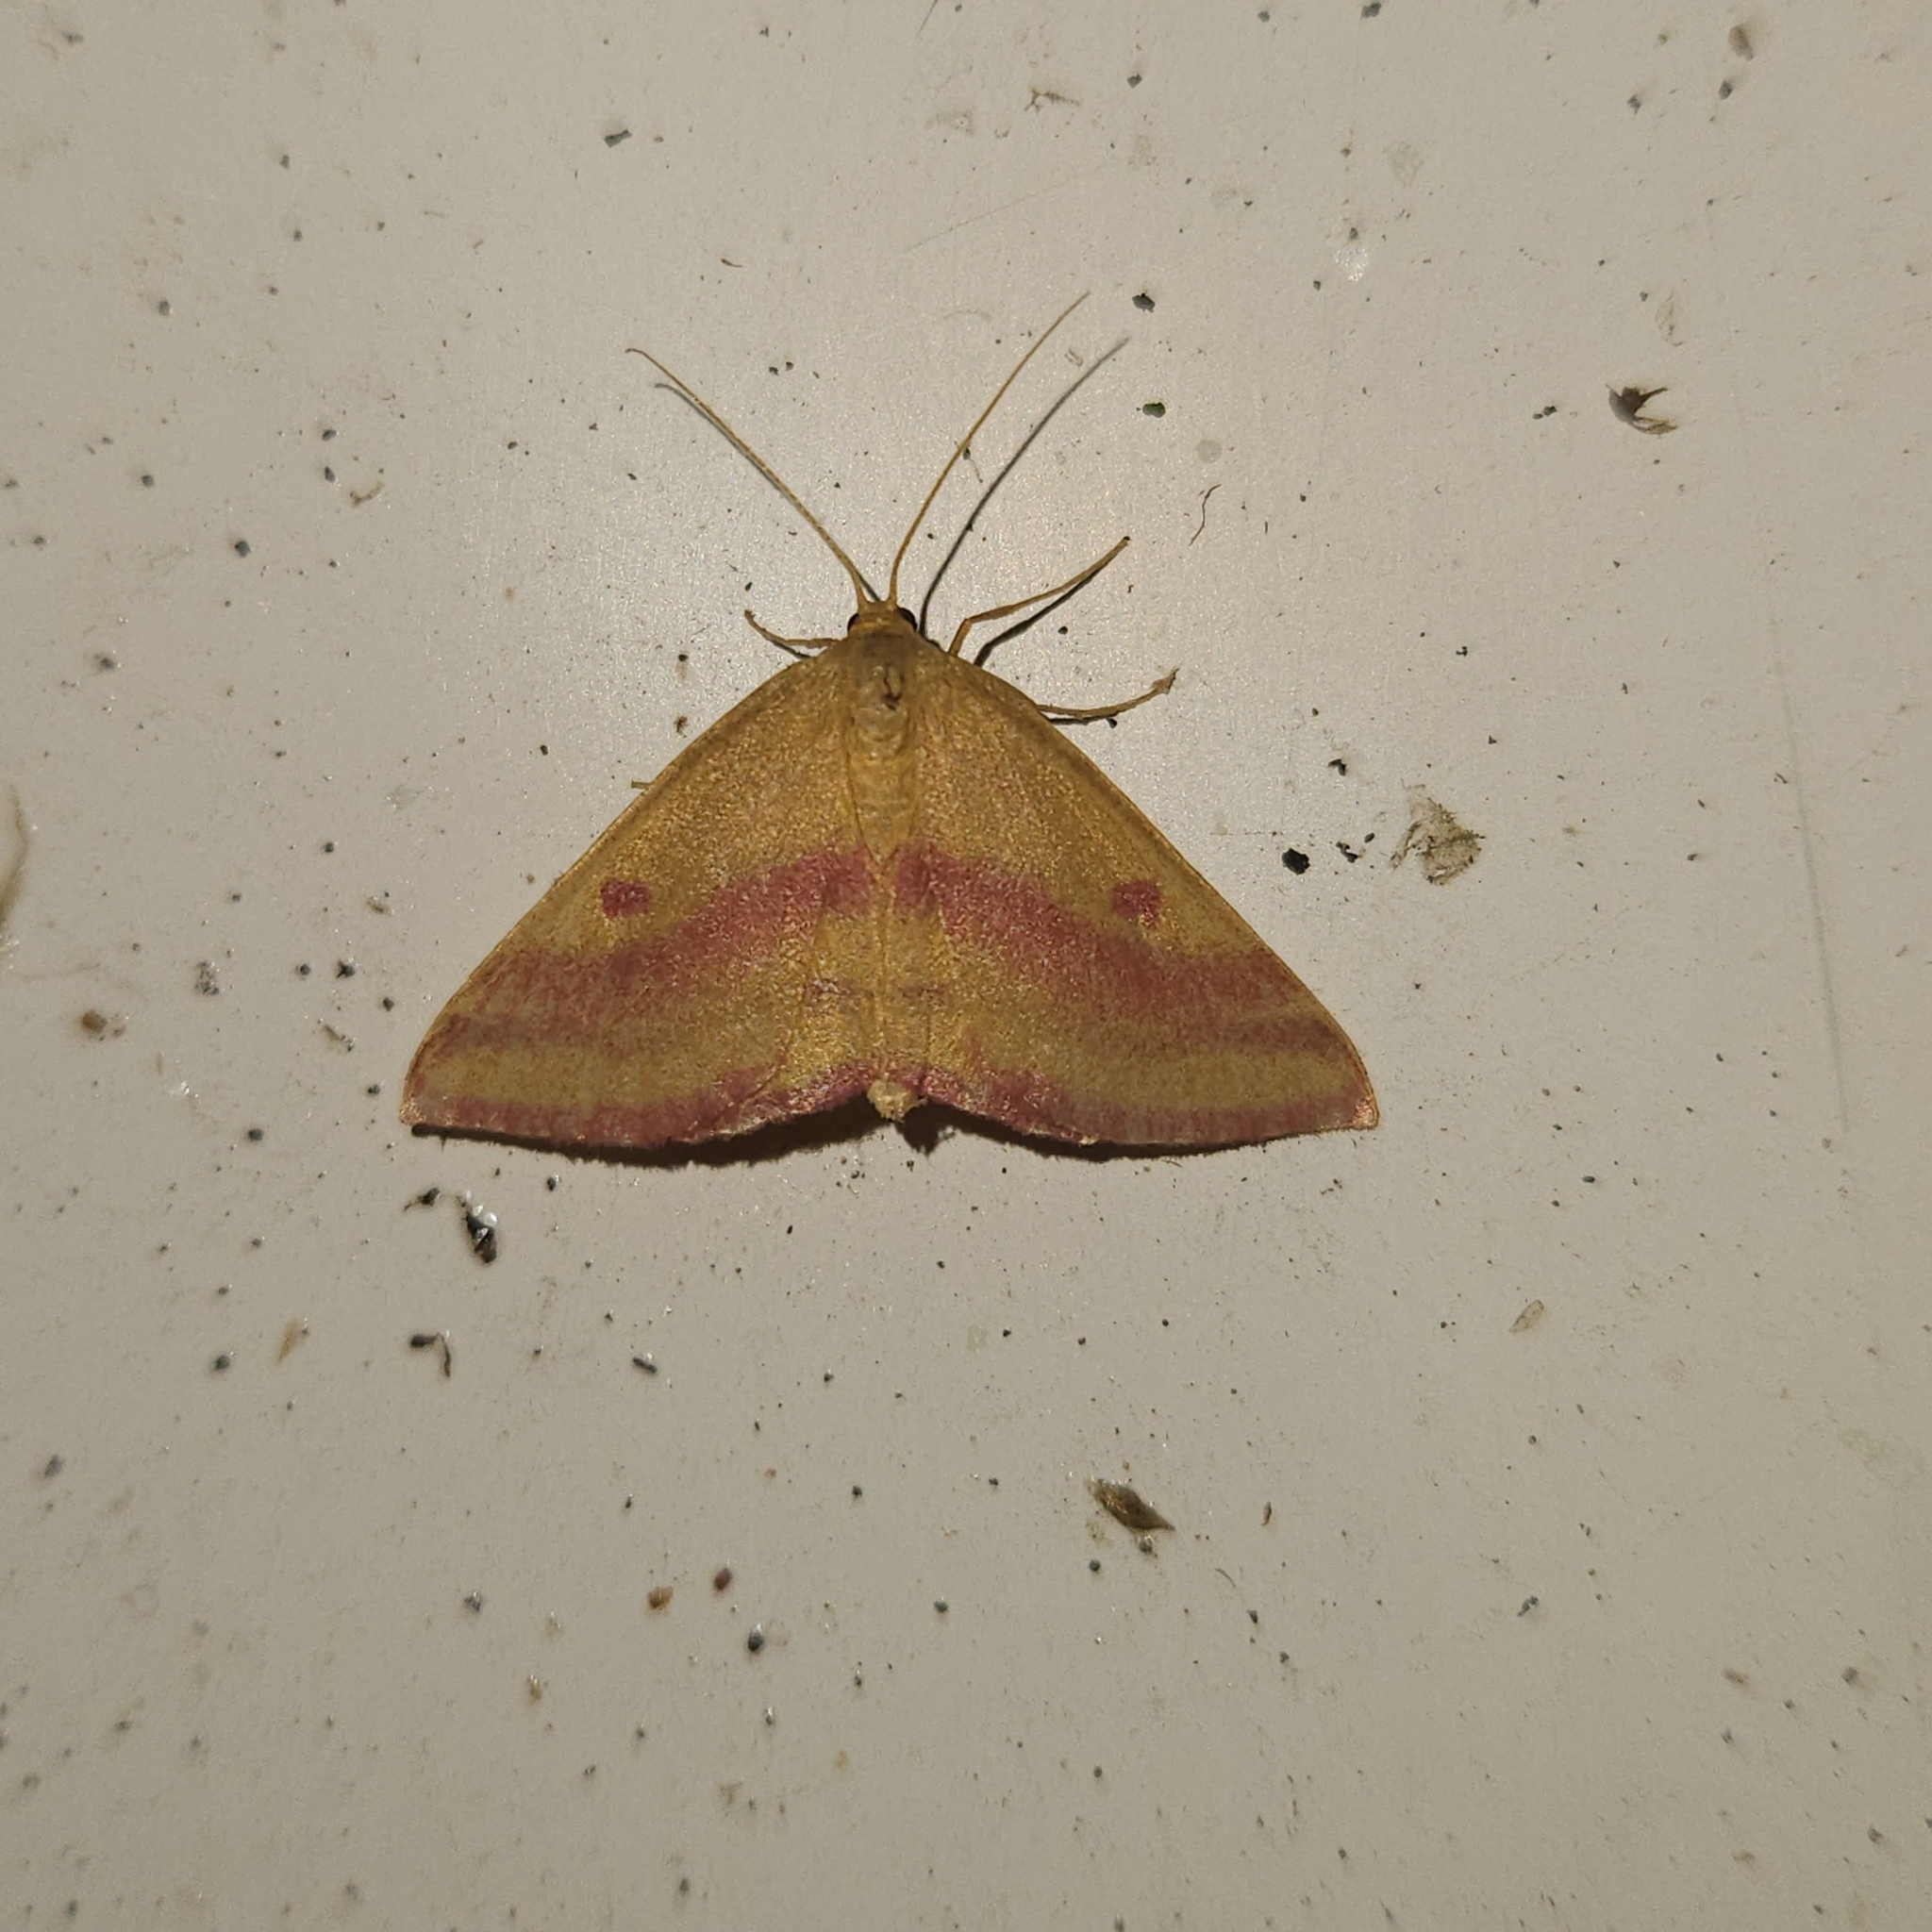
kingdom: Animalia
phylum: Arthropoda
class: Insecta
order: Lepidoptera
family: Geometridae
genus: Haematopis
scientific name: Haematopis grataria
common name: Chickweed geometer
